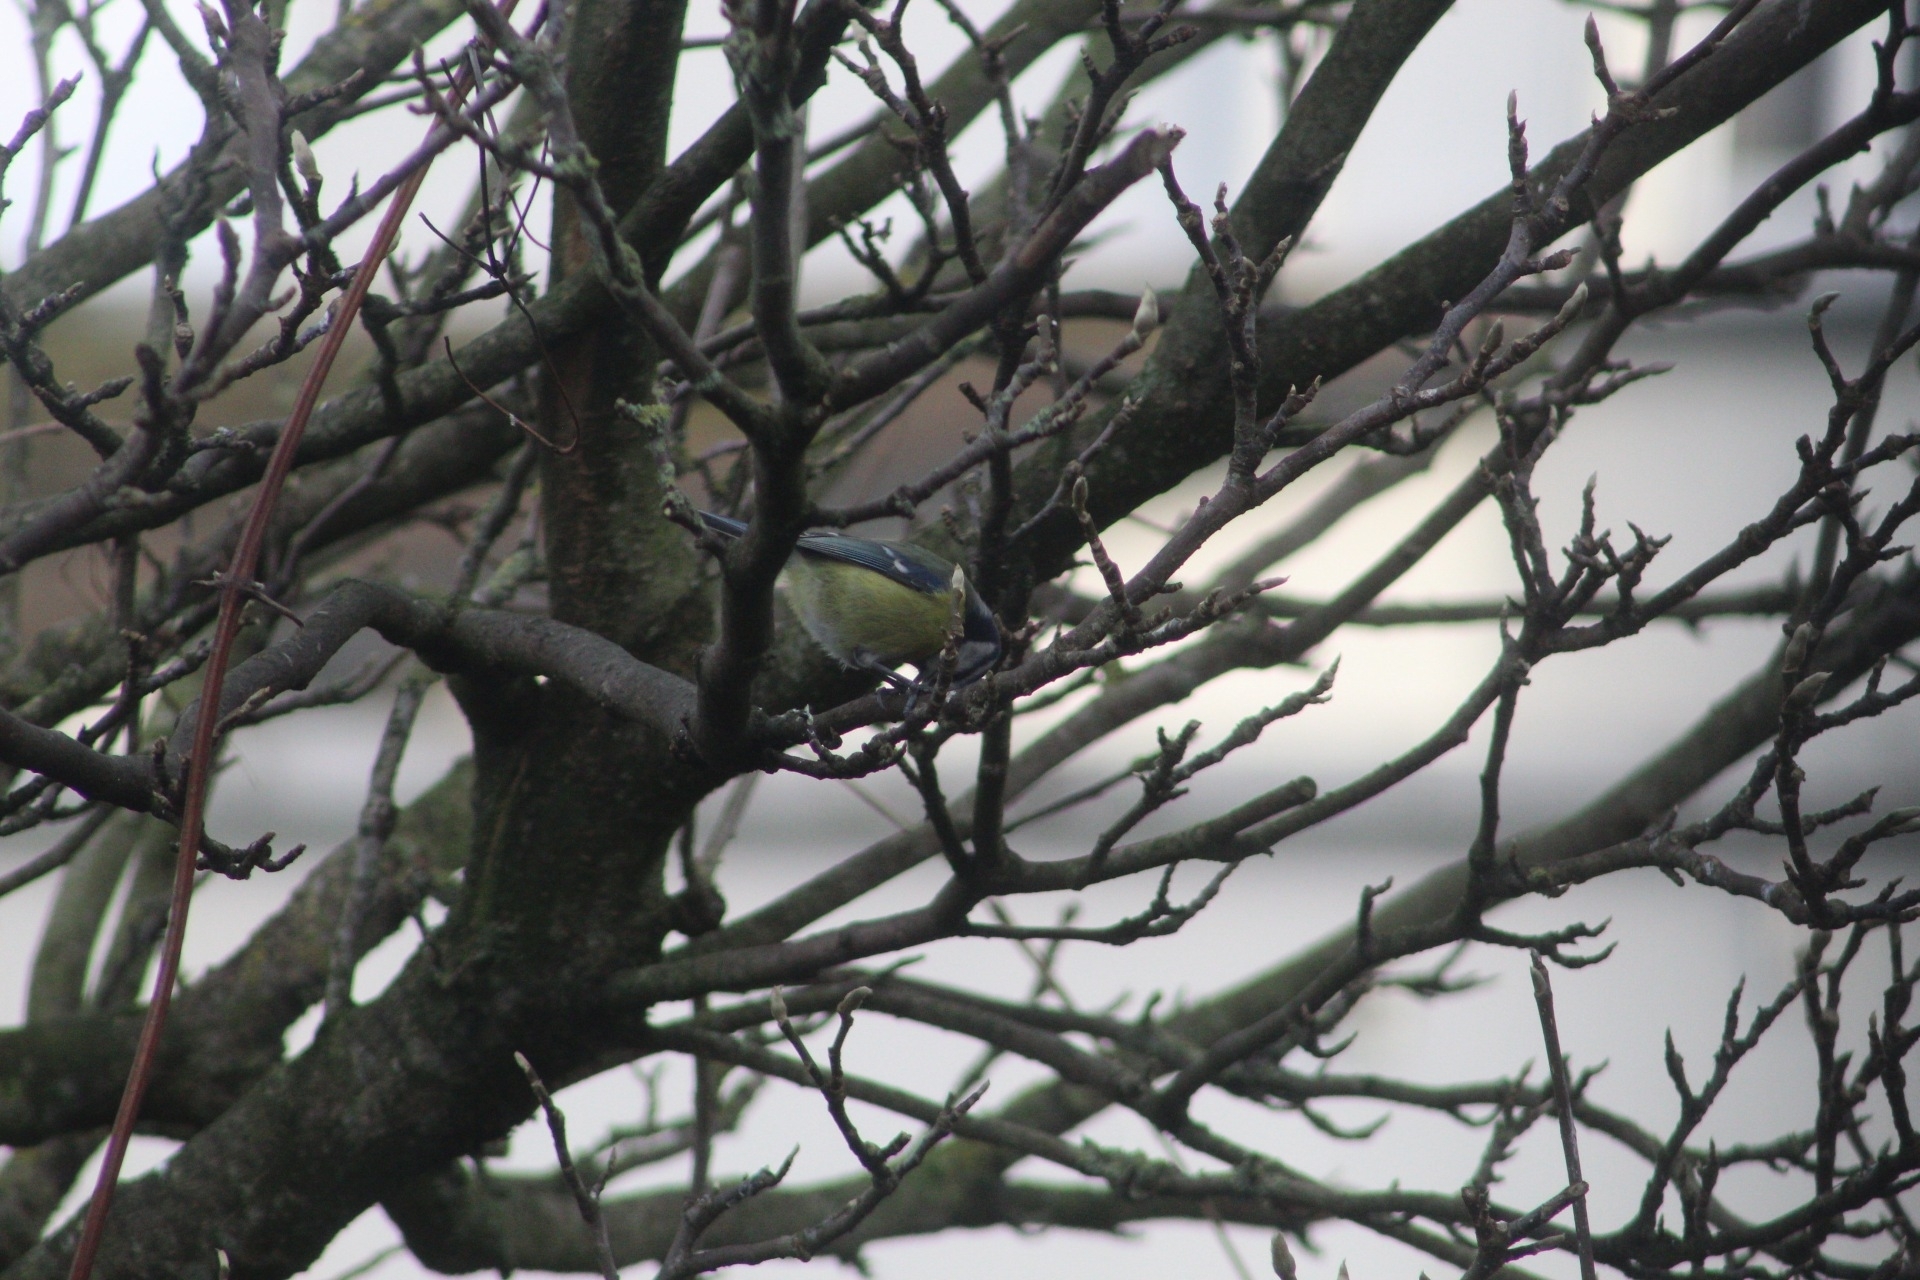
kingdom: Animalia
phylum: Chordata
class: Aves
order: Passeriformes
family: Paridae
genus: Cyanistes
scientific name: Cyanistes caeruleus
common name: Eurasian blue tit
